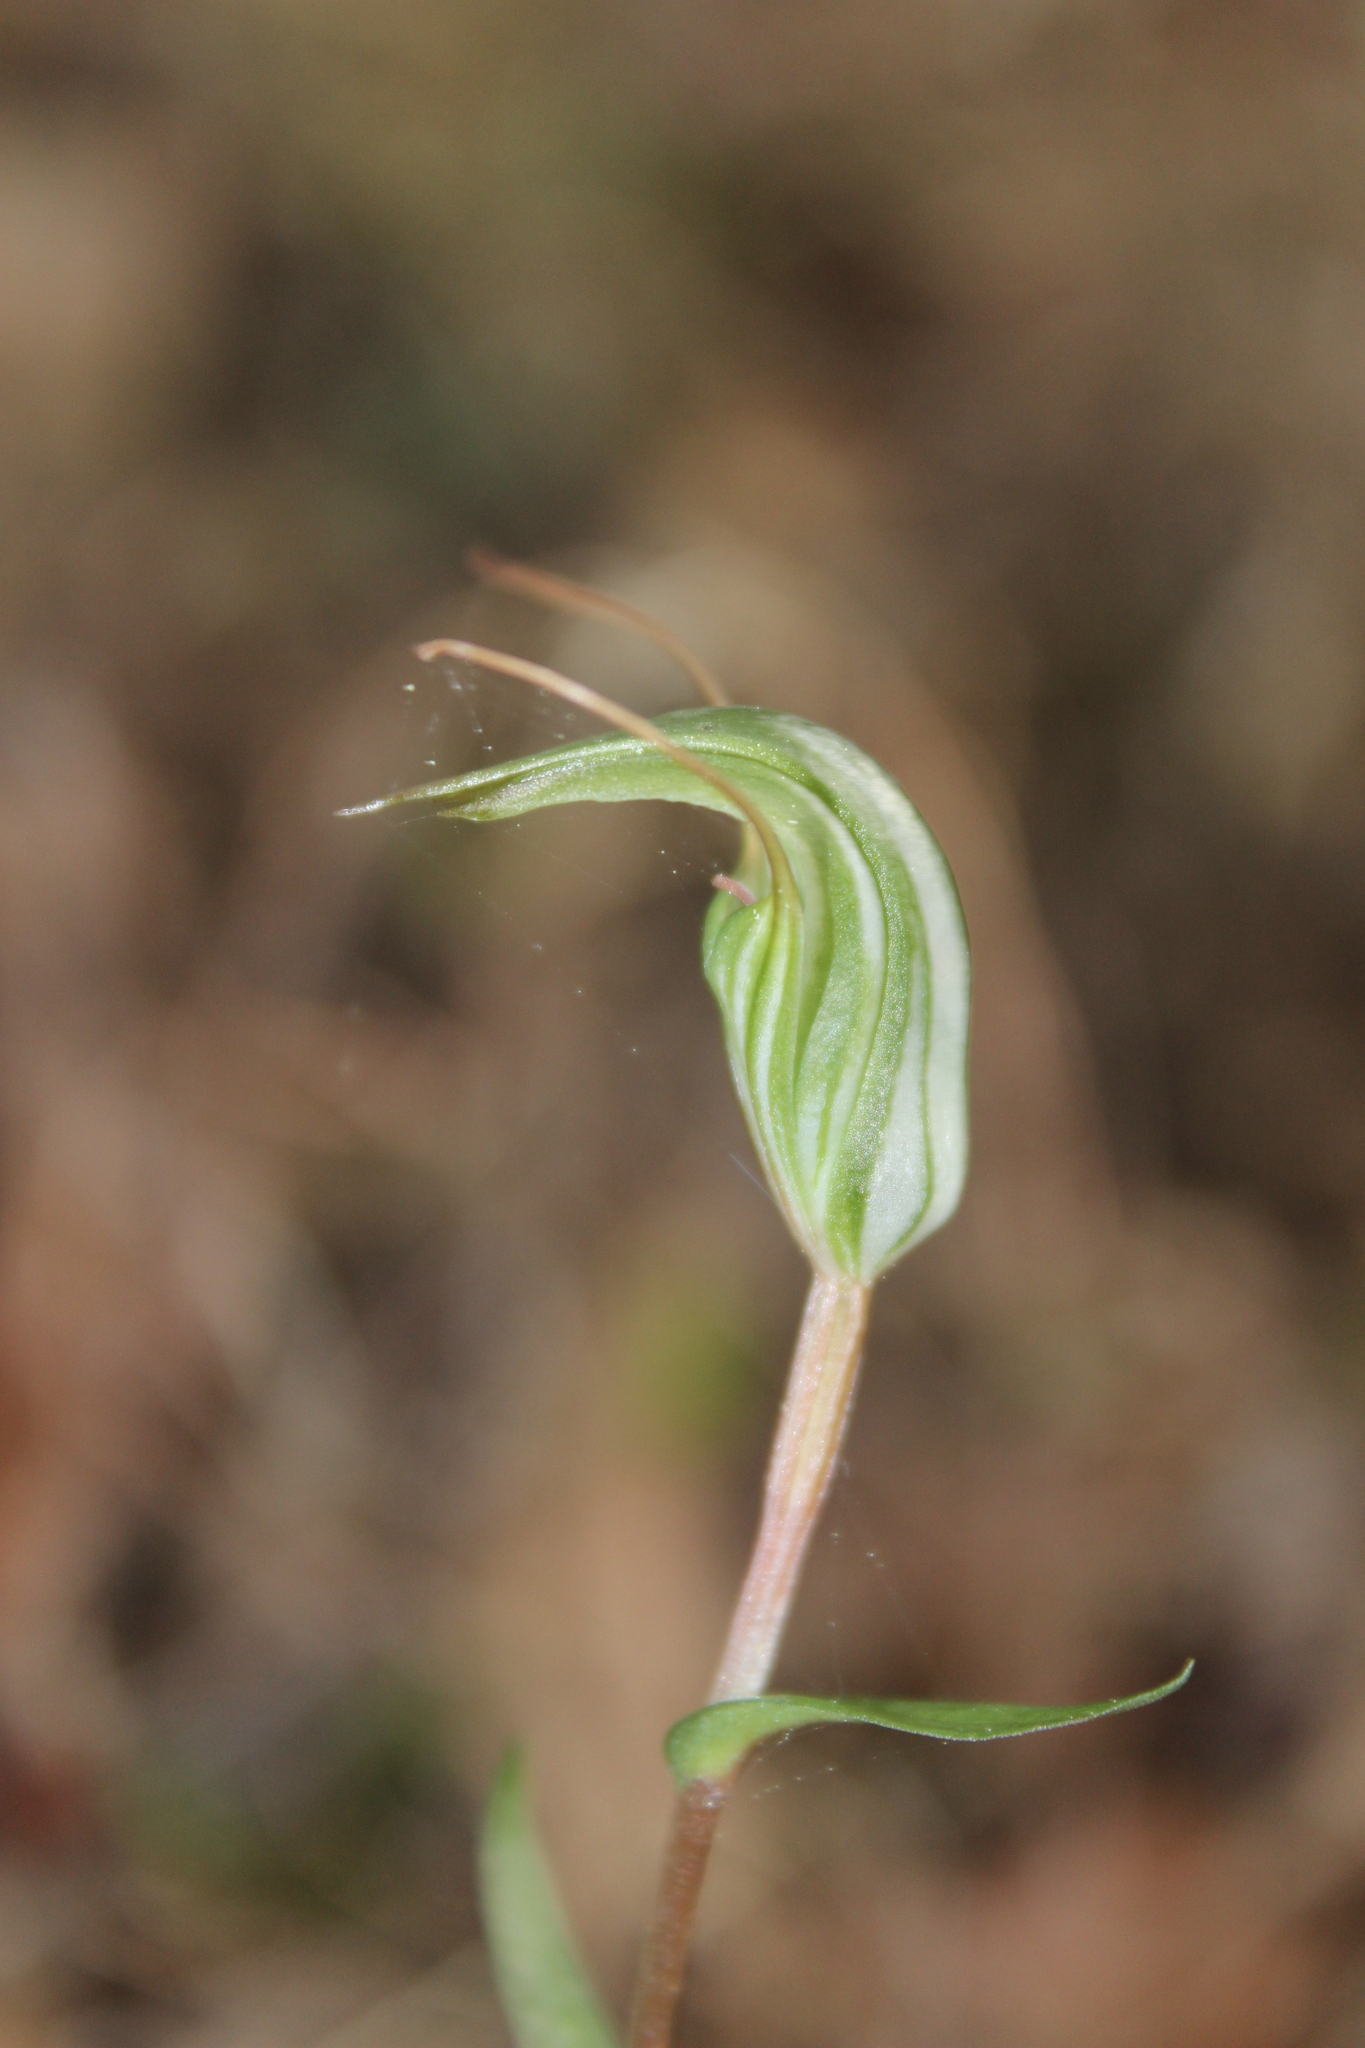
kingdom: Plantae
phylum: Tracheophyta
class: Liliopsida
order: Asparagales
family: Orchidaceae
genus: Pterostylis
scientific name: Pterostylis alobula
